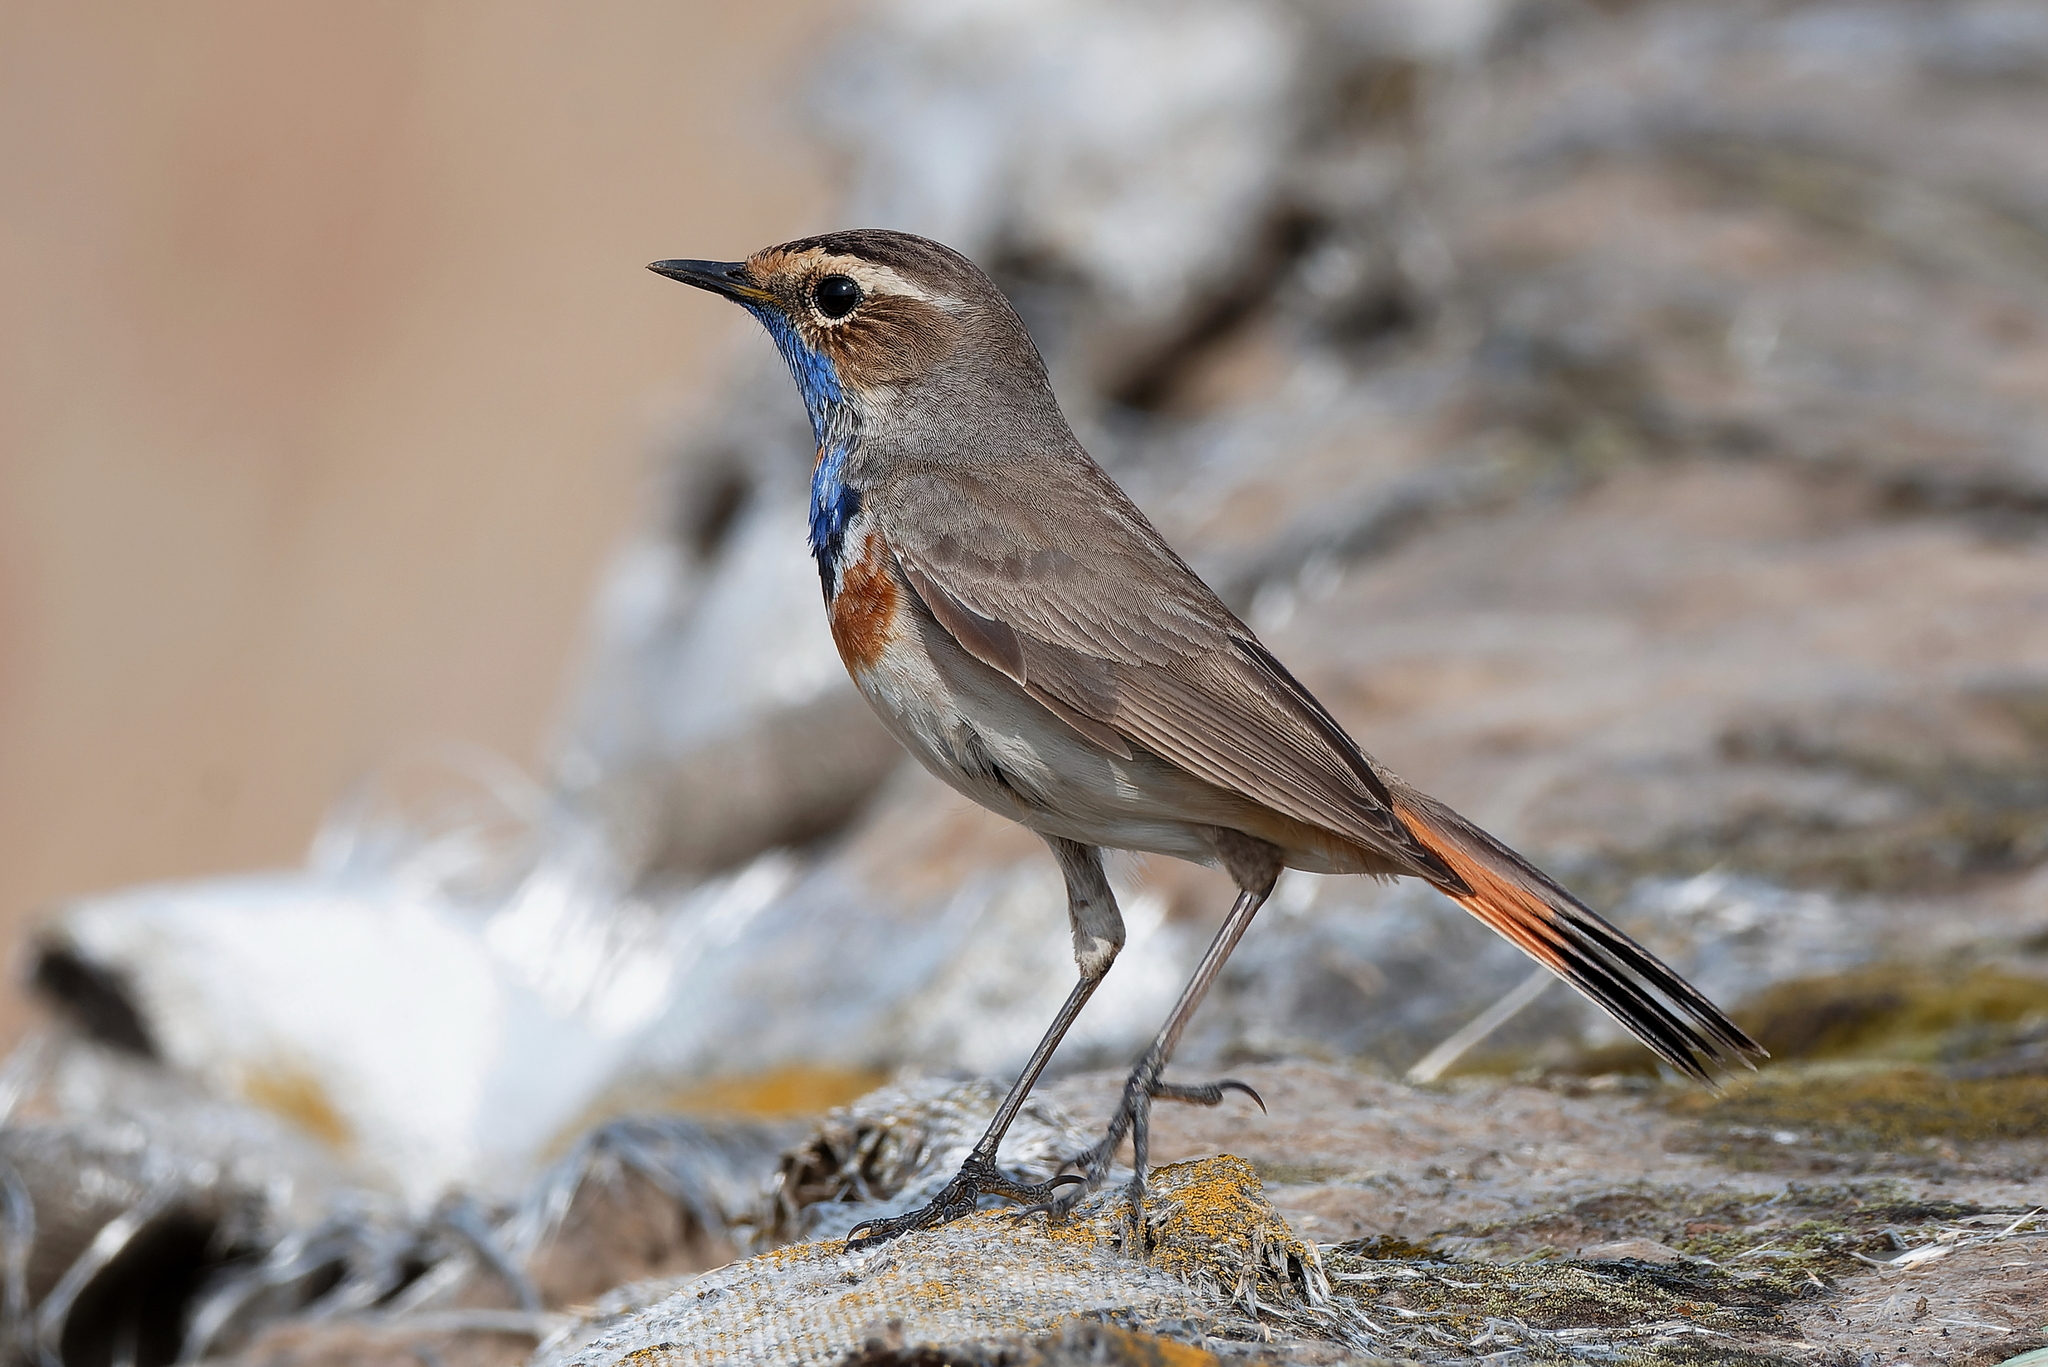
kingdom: Animalia
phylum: Chordata
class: Aves
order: Passeriformes
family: Muscicapidae
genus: Luscinia
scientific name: Luscinia svecica
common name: Bluethroat
